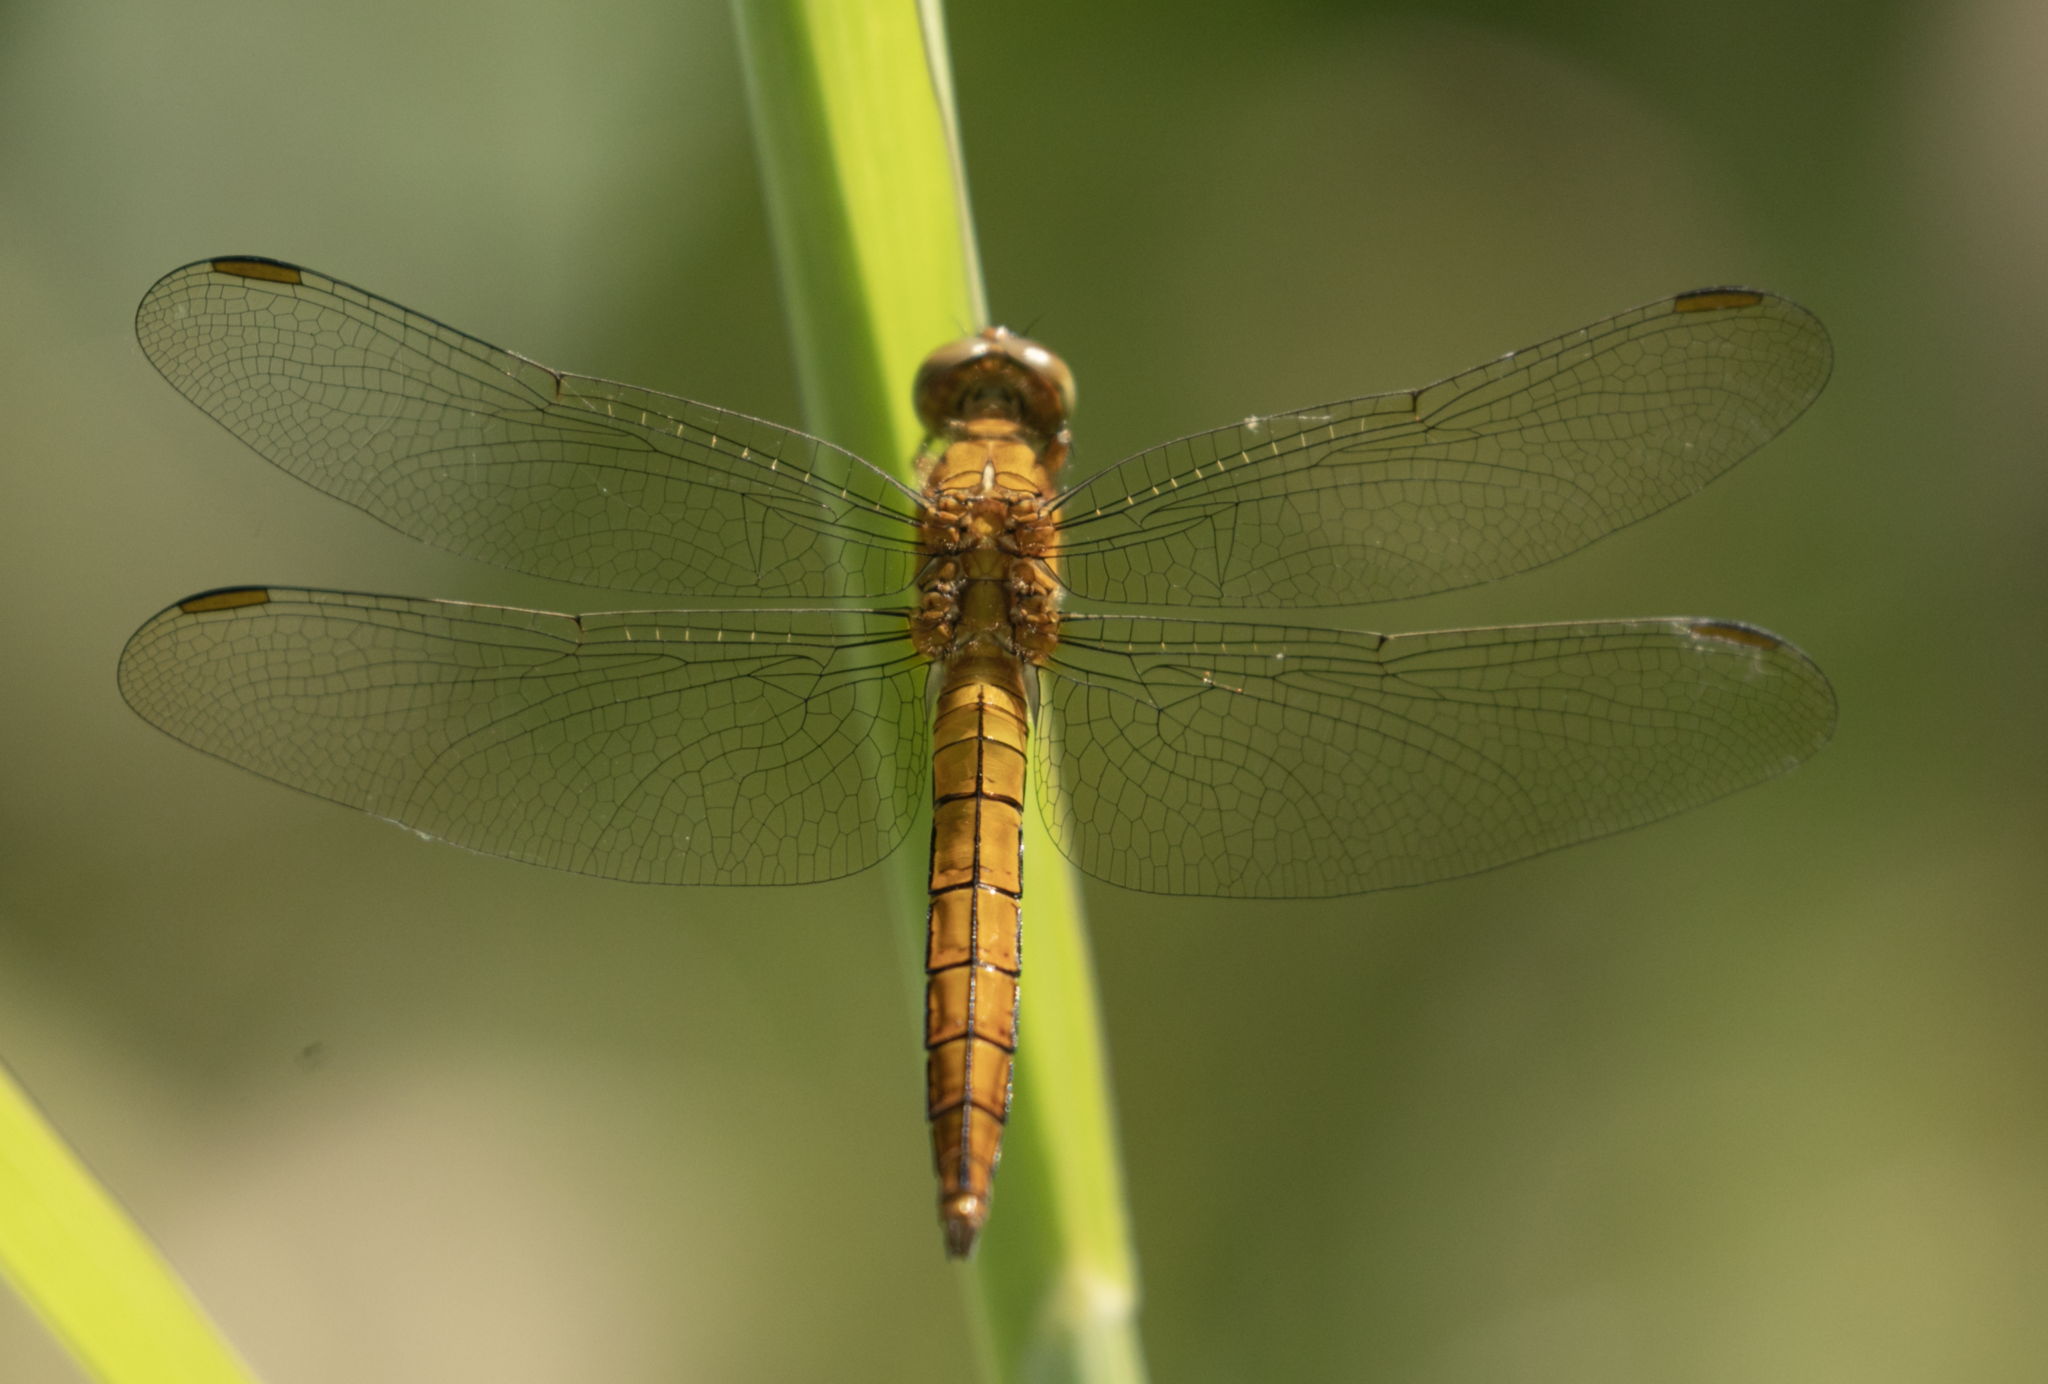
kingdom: Animalia
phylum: Arthropoda
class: Insecta
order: Odonata
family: Libellulidae
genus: Orthetrum
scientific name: Orthetrum coerulescens
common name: Keeled skimmer
